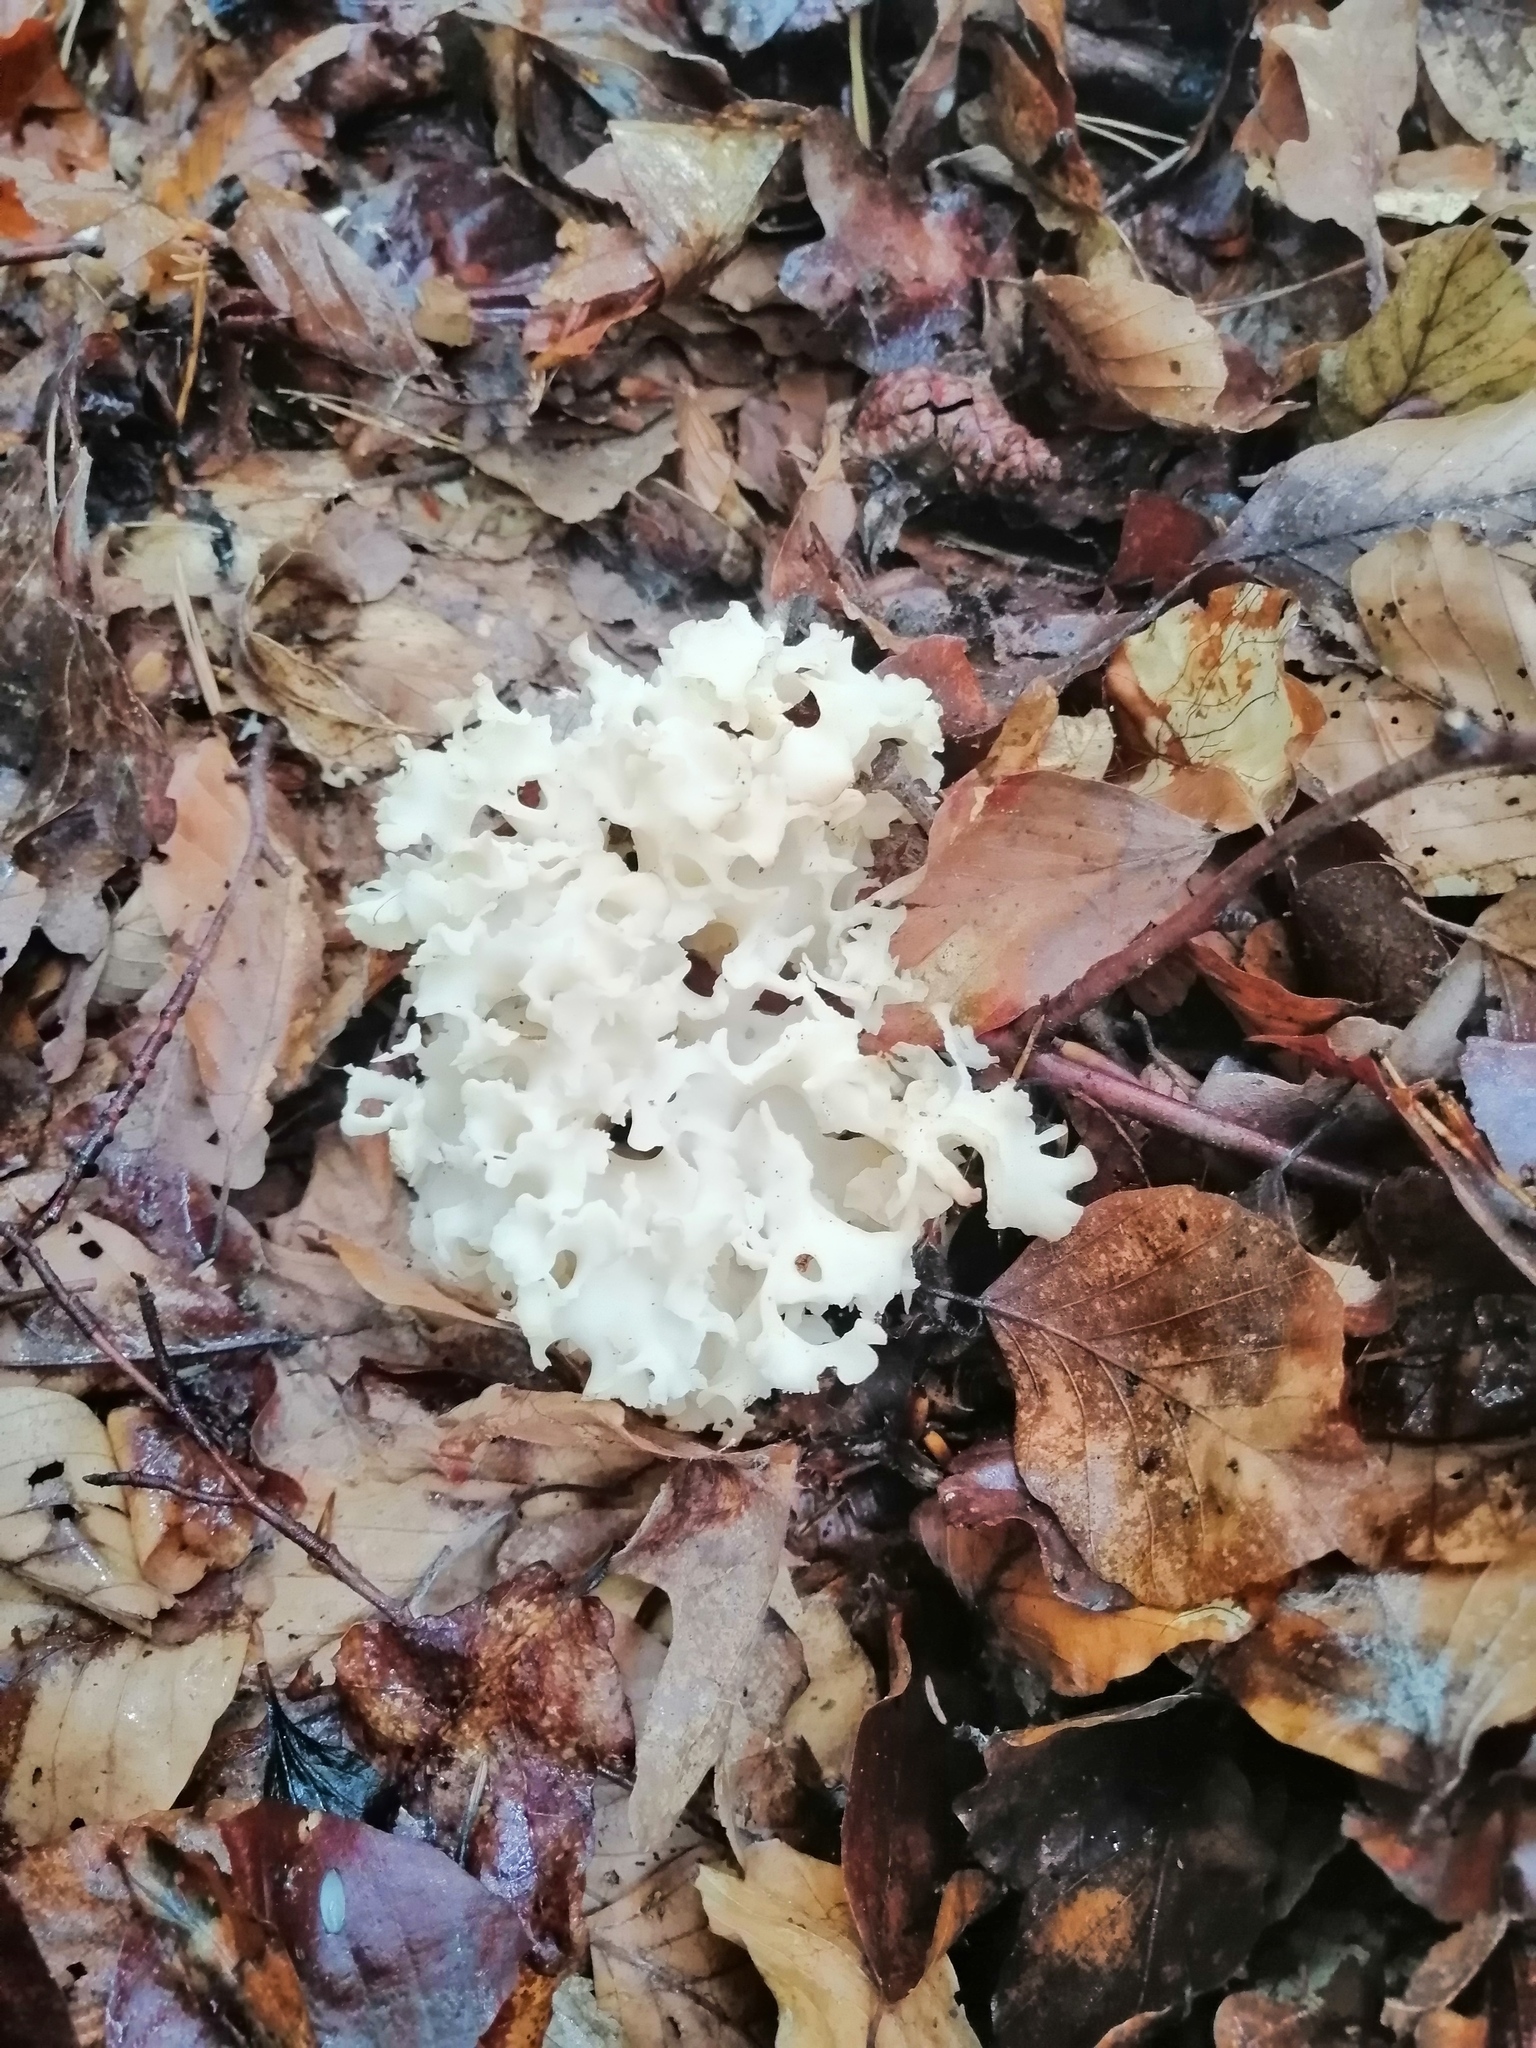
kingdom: Fungi
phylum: Basidiomycota
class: Agaricomycetes
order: Polyporales
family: Sparassidaceae
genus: Sparassis
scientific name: Sparassis crispa
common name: Brain fungus
